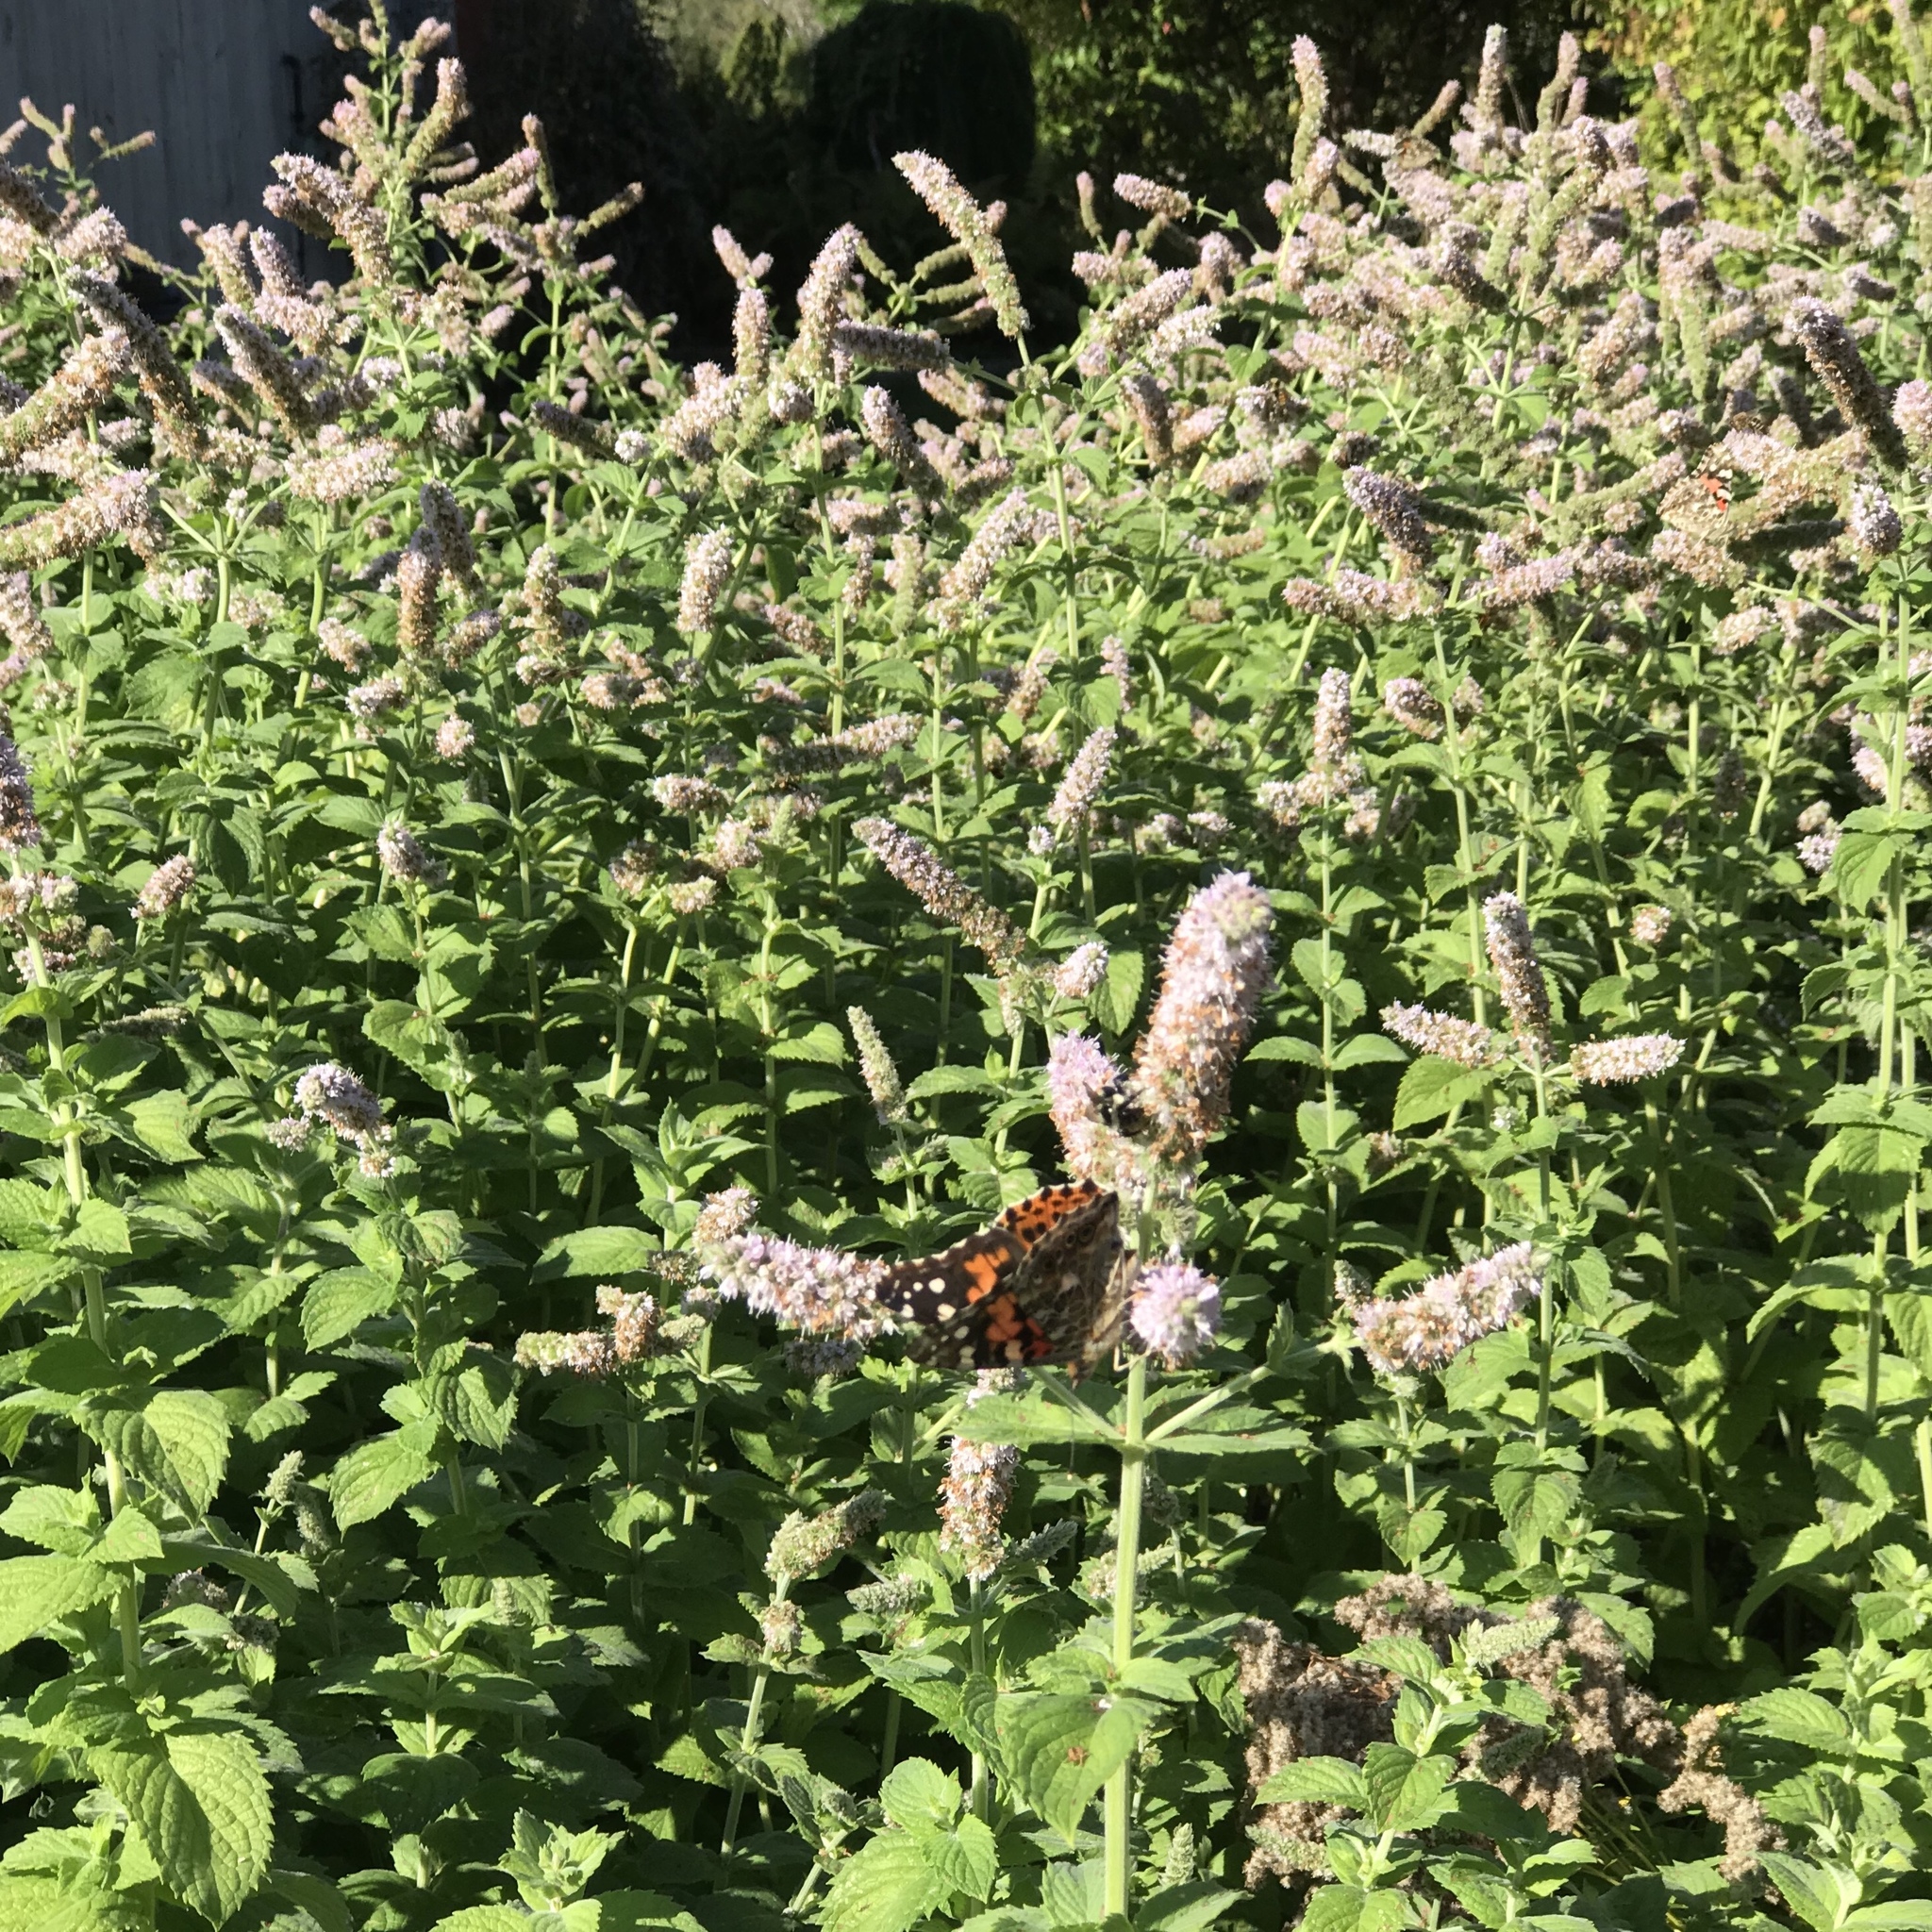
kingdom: Animalia
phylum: Arthropoda
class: Insecta
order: Lepidoptera
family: Nymphalidae
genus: Vanessa
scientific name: Vanessa cardui
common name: Painted lady
